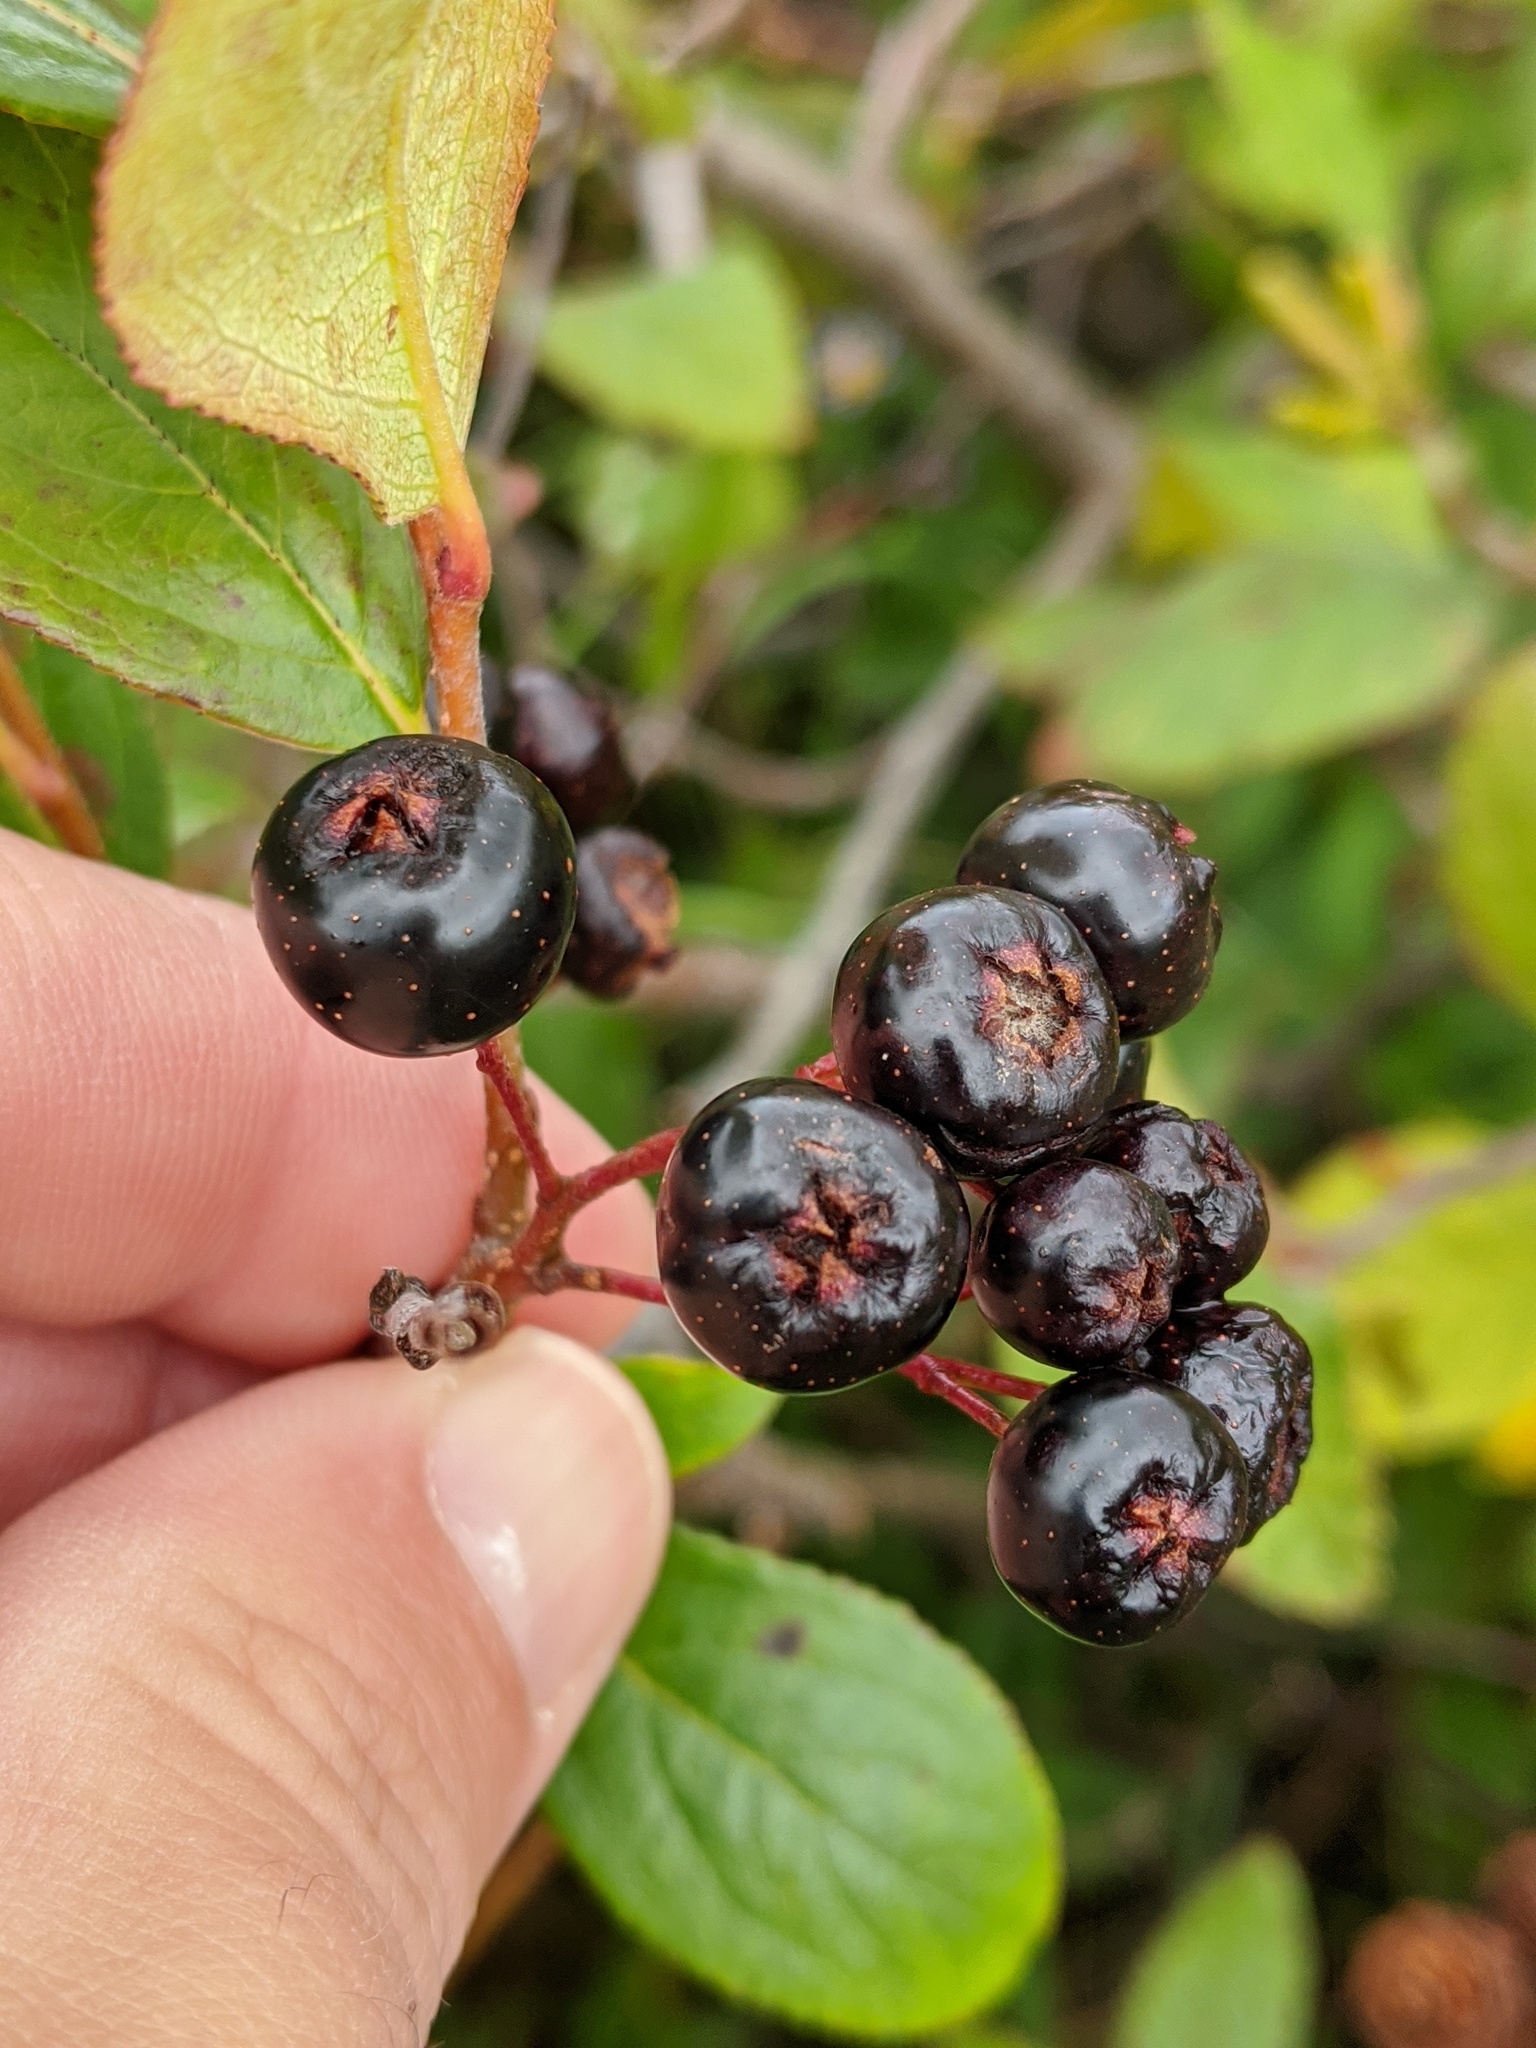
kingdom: Plantae
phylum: Tracheophyta
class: Magnoliopsida
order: Rosales
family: Rosaceae
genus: Aronia
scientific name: Aronia melanocarpa
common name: Black chokeberry
